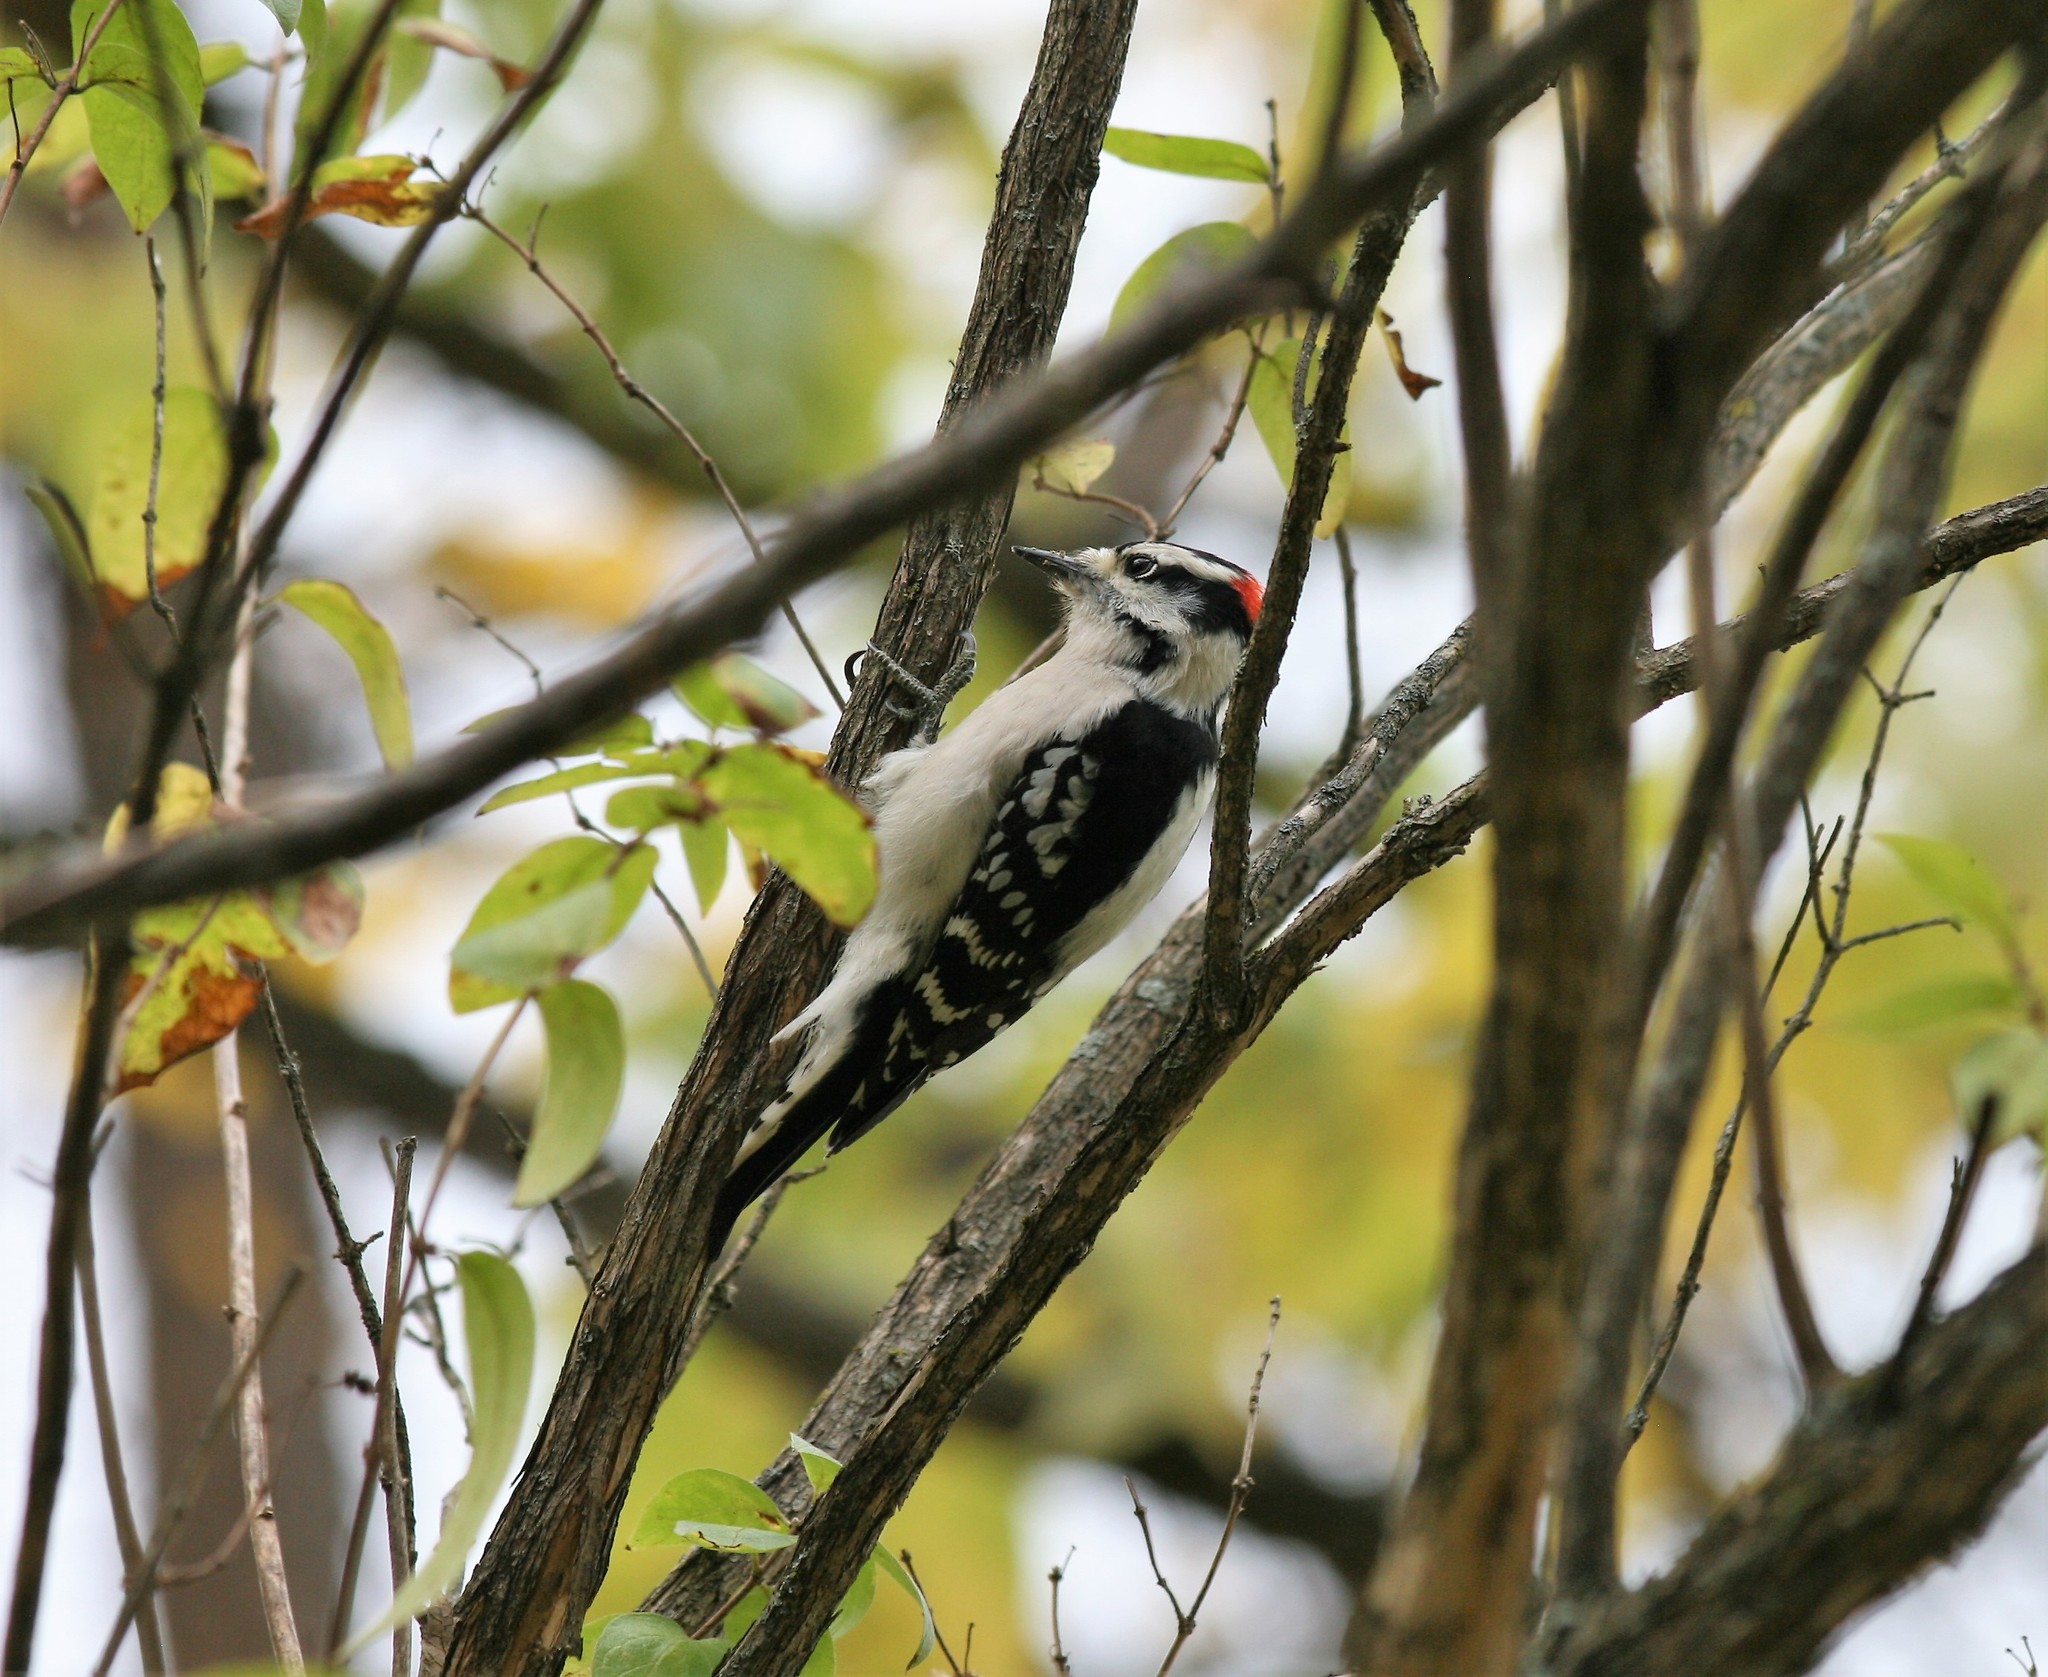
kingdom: Animalia
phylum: Chordata
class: Aves
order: Piciformes
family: Picidae
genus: Dryobates
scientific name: Dryobates pubescens
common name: Downy woodpecker
